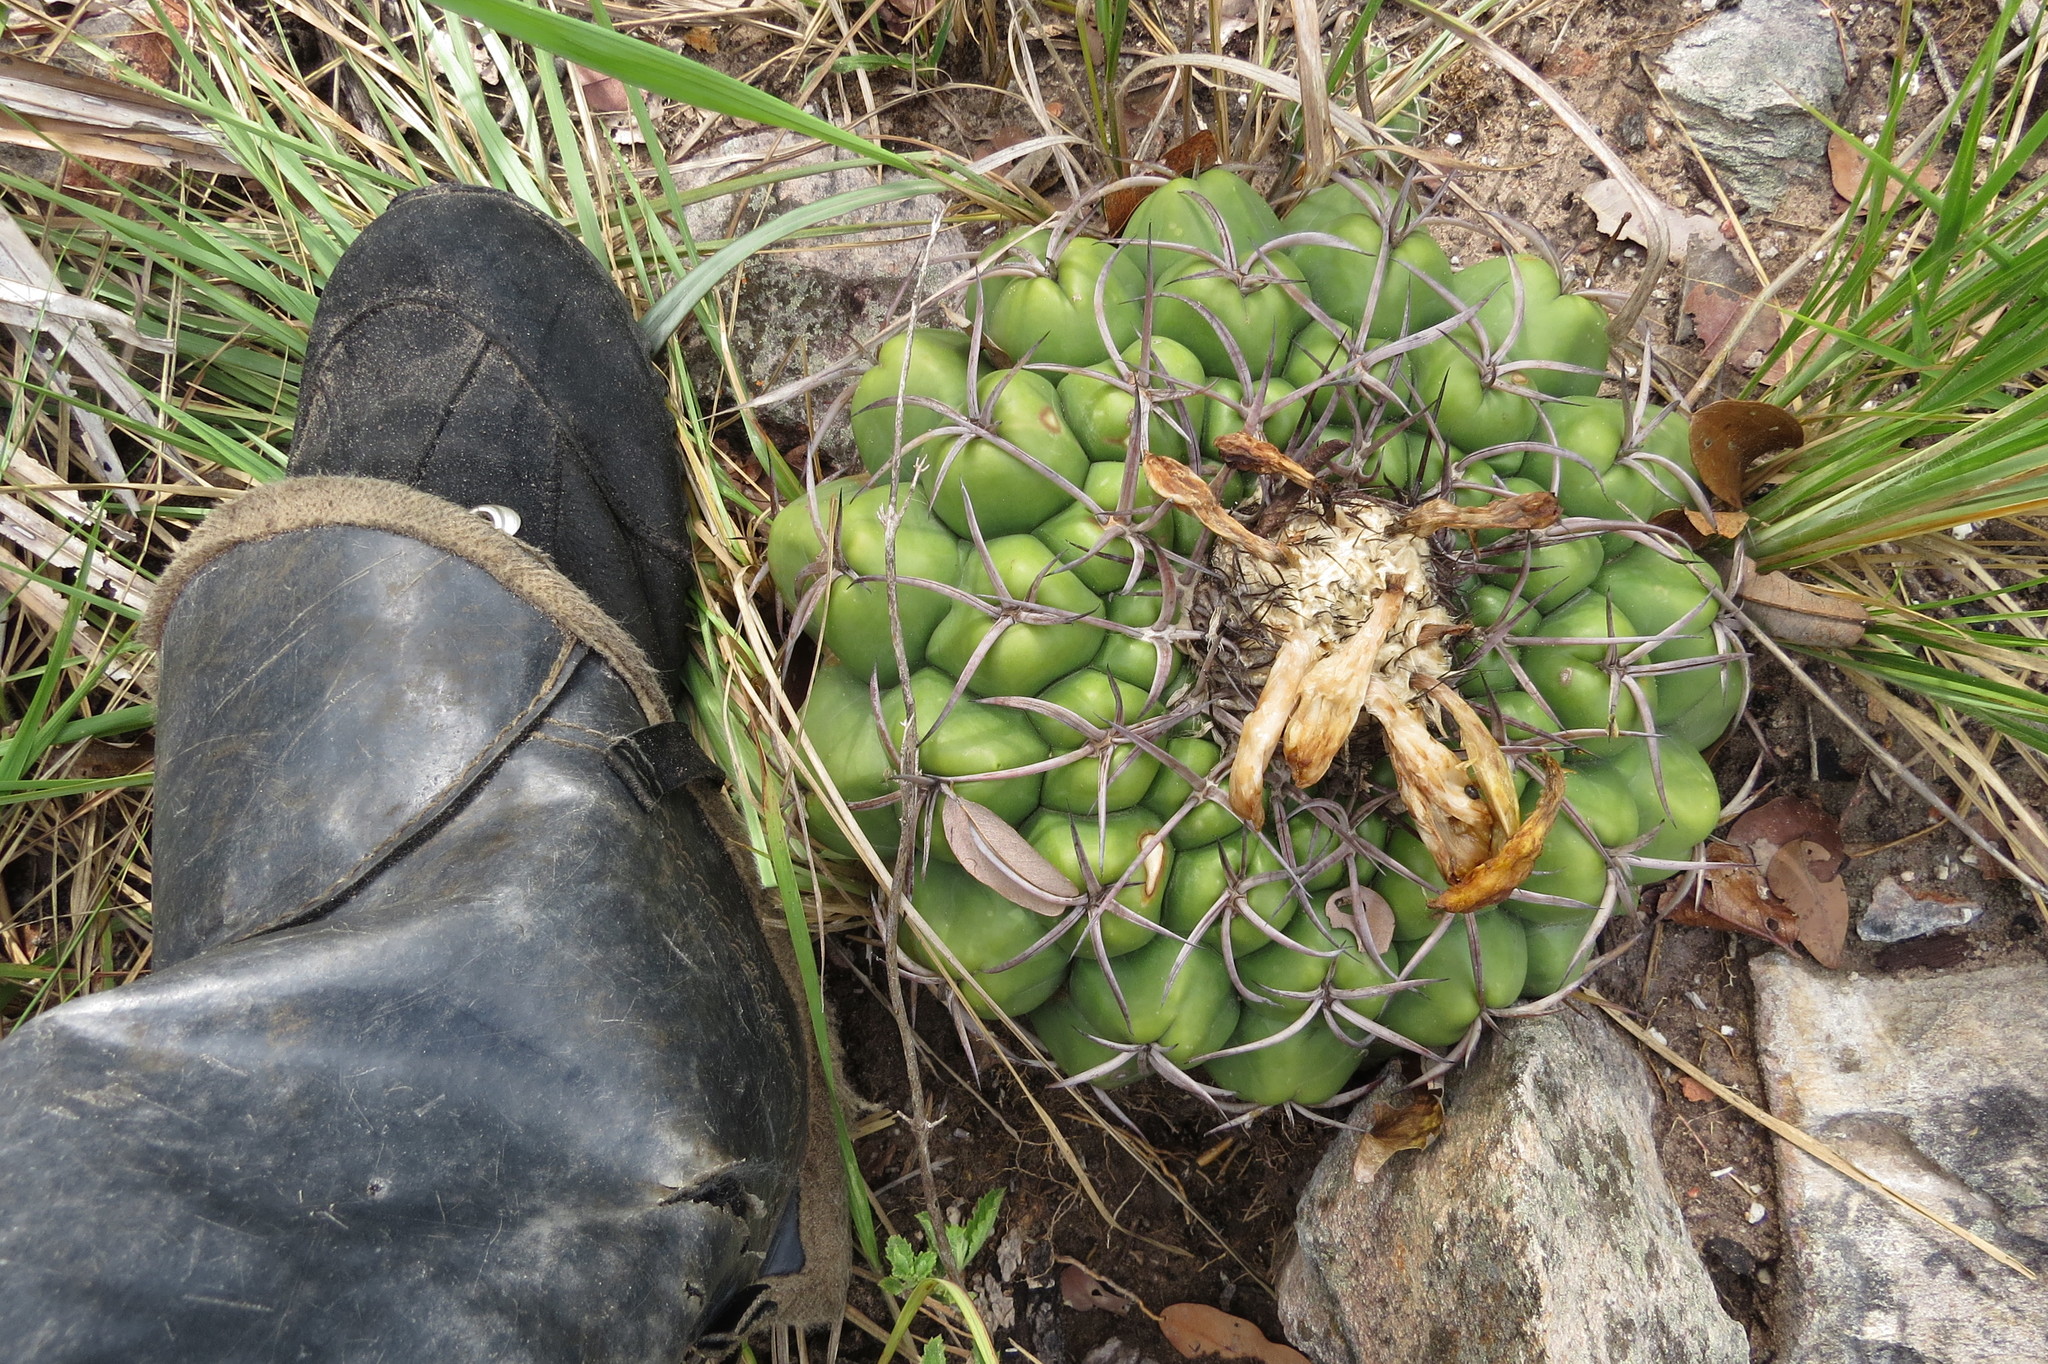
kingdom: Plantae
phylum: Tracheophyta
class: Magnoliopsida
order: Caryophyllales
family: Cactaceae
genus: Discocactus
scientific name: Discocactus catingicola
